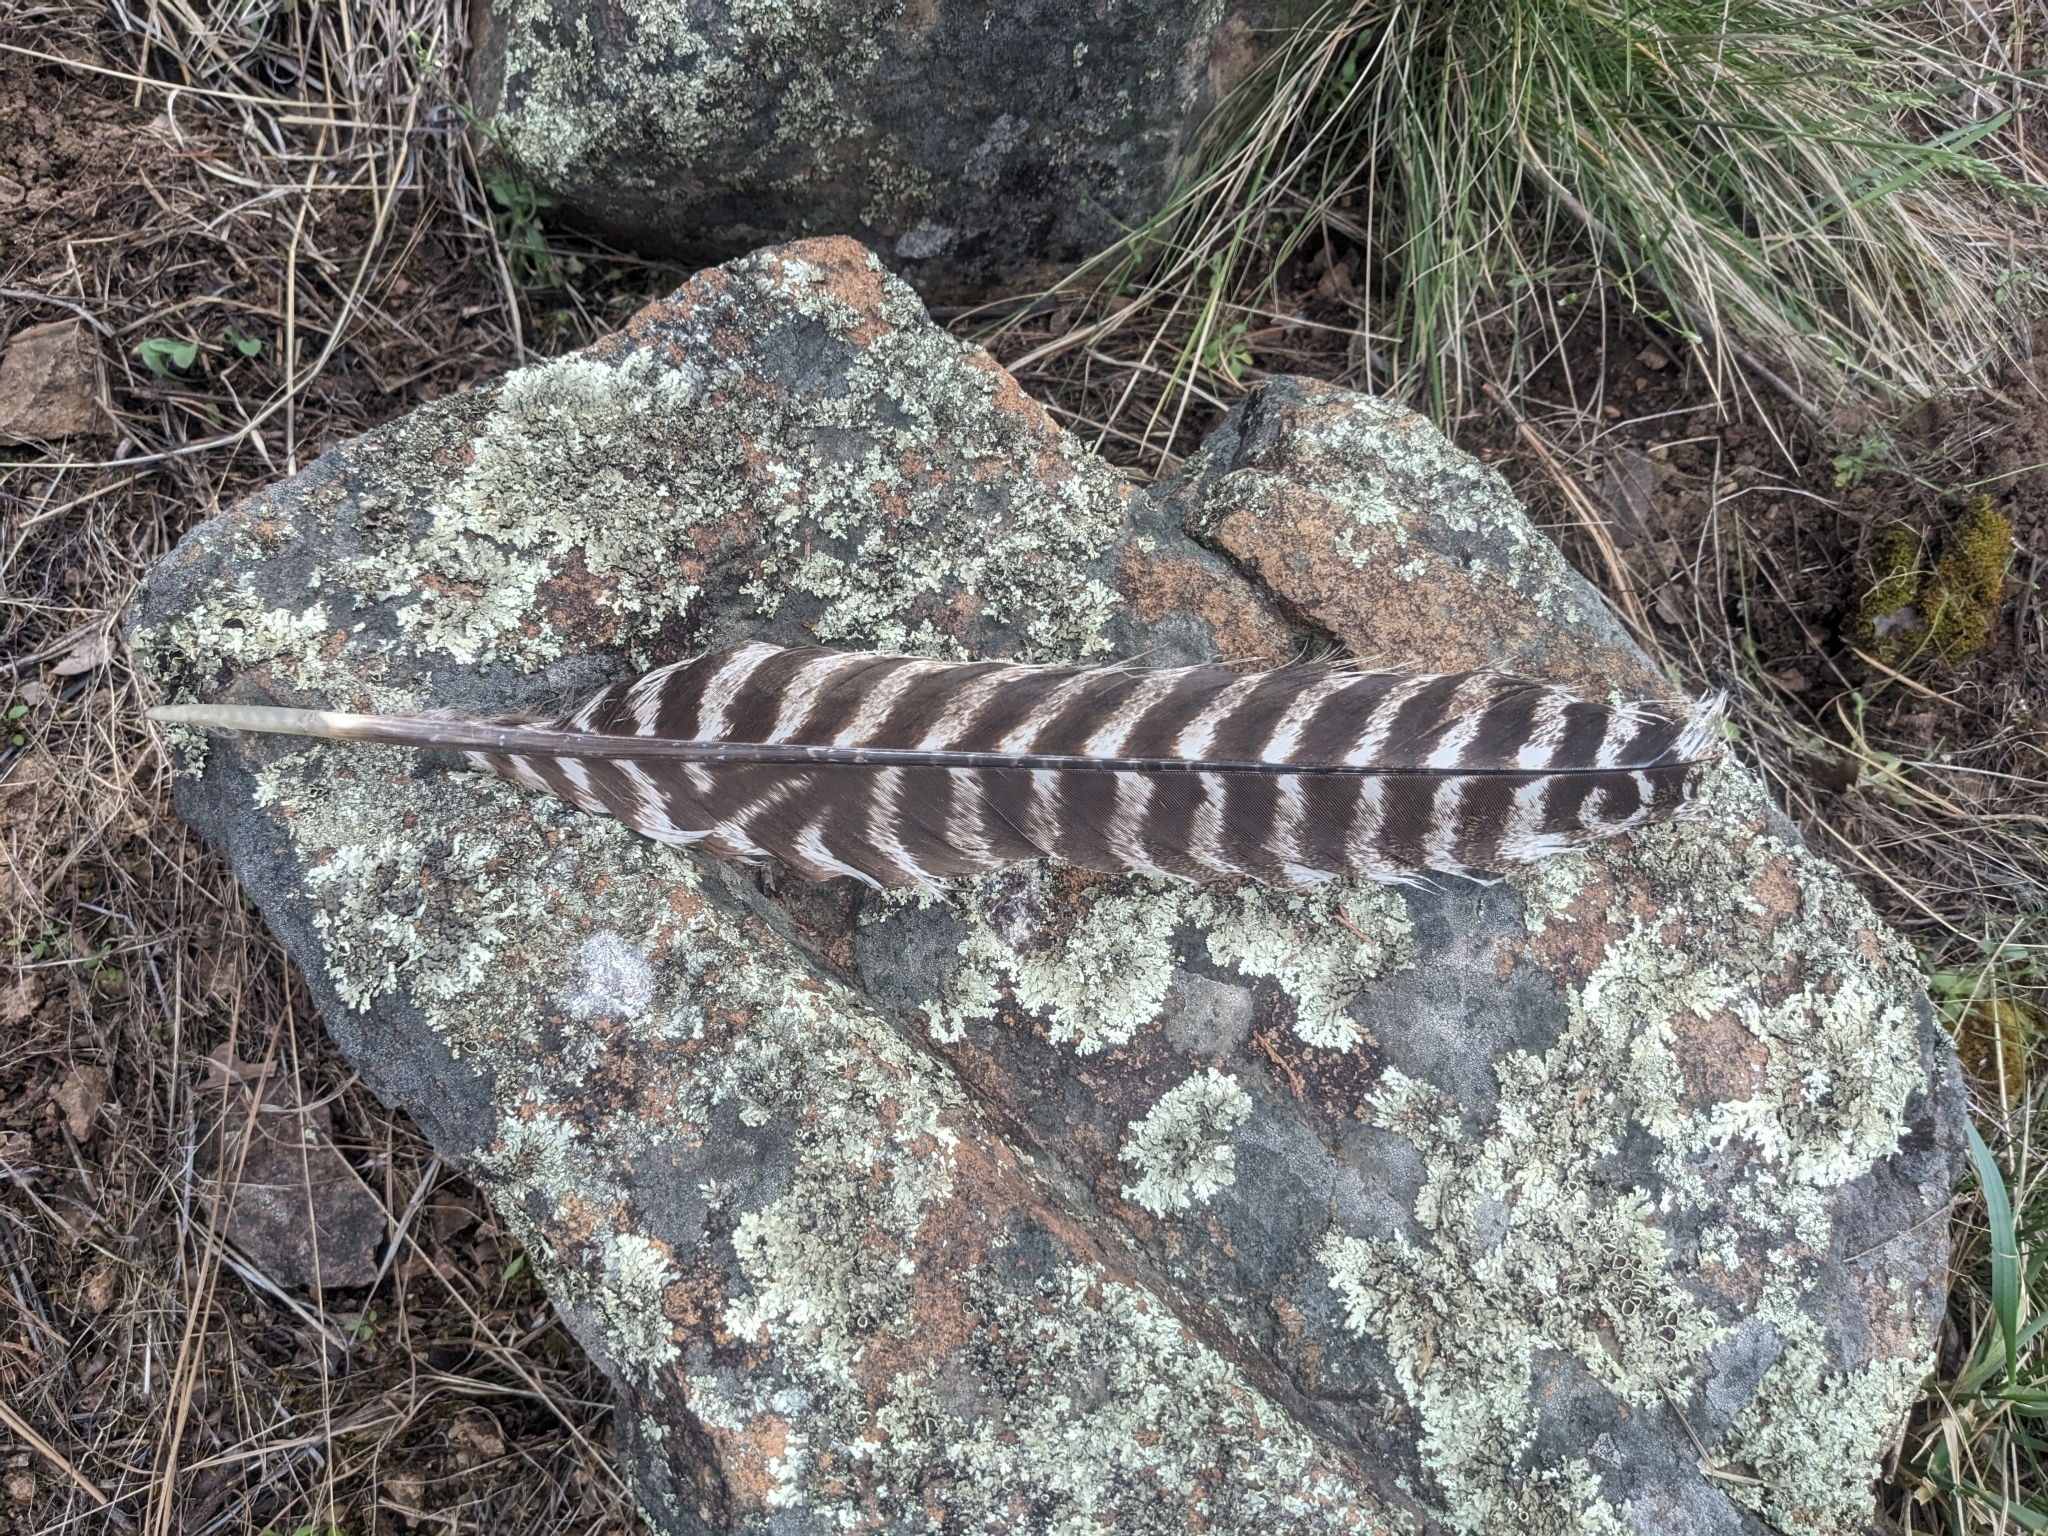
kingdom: Animalia
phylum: Chordata
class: Aves
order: Galliformes
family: Phasianidae
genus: Meleagris
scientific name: Meleagris gallopavo
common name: Wild turkey
